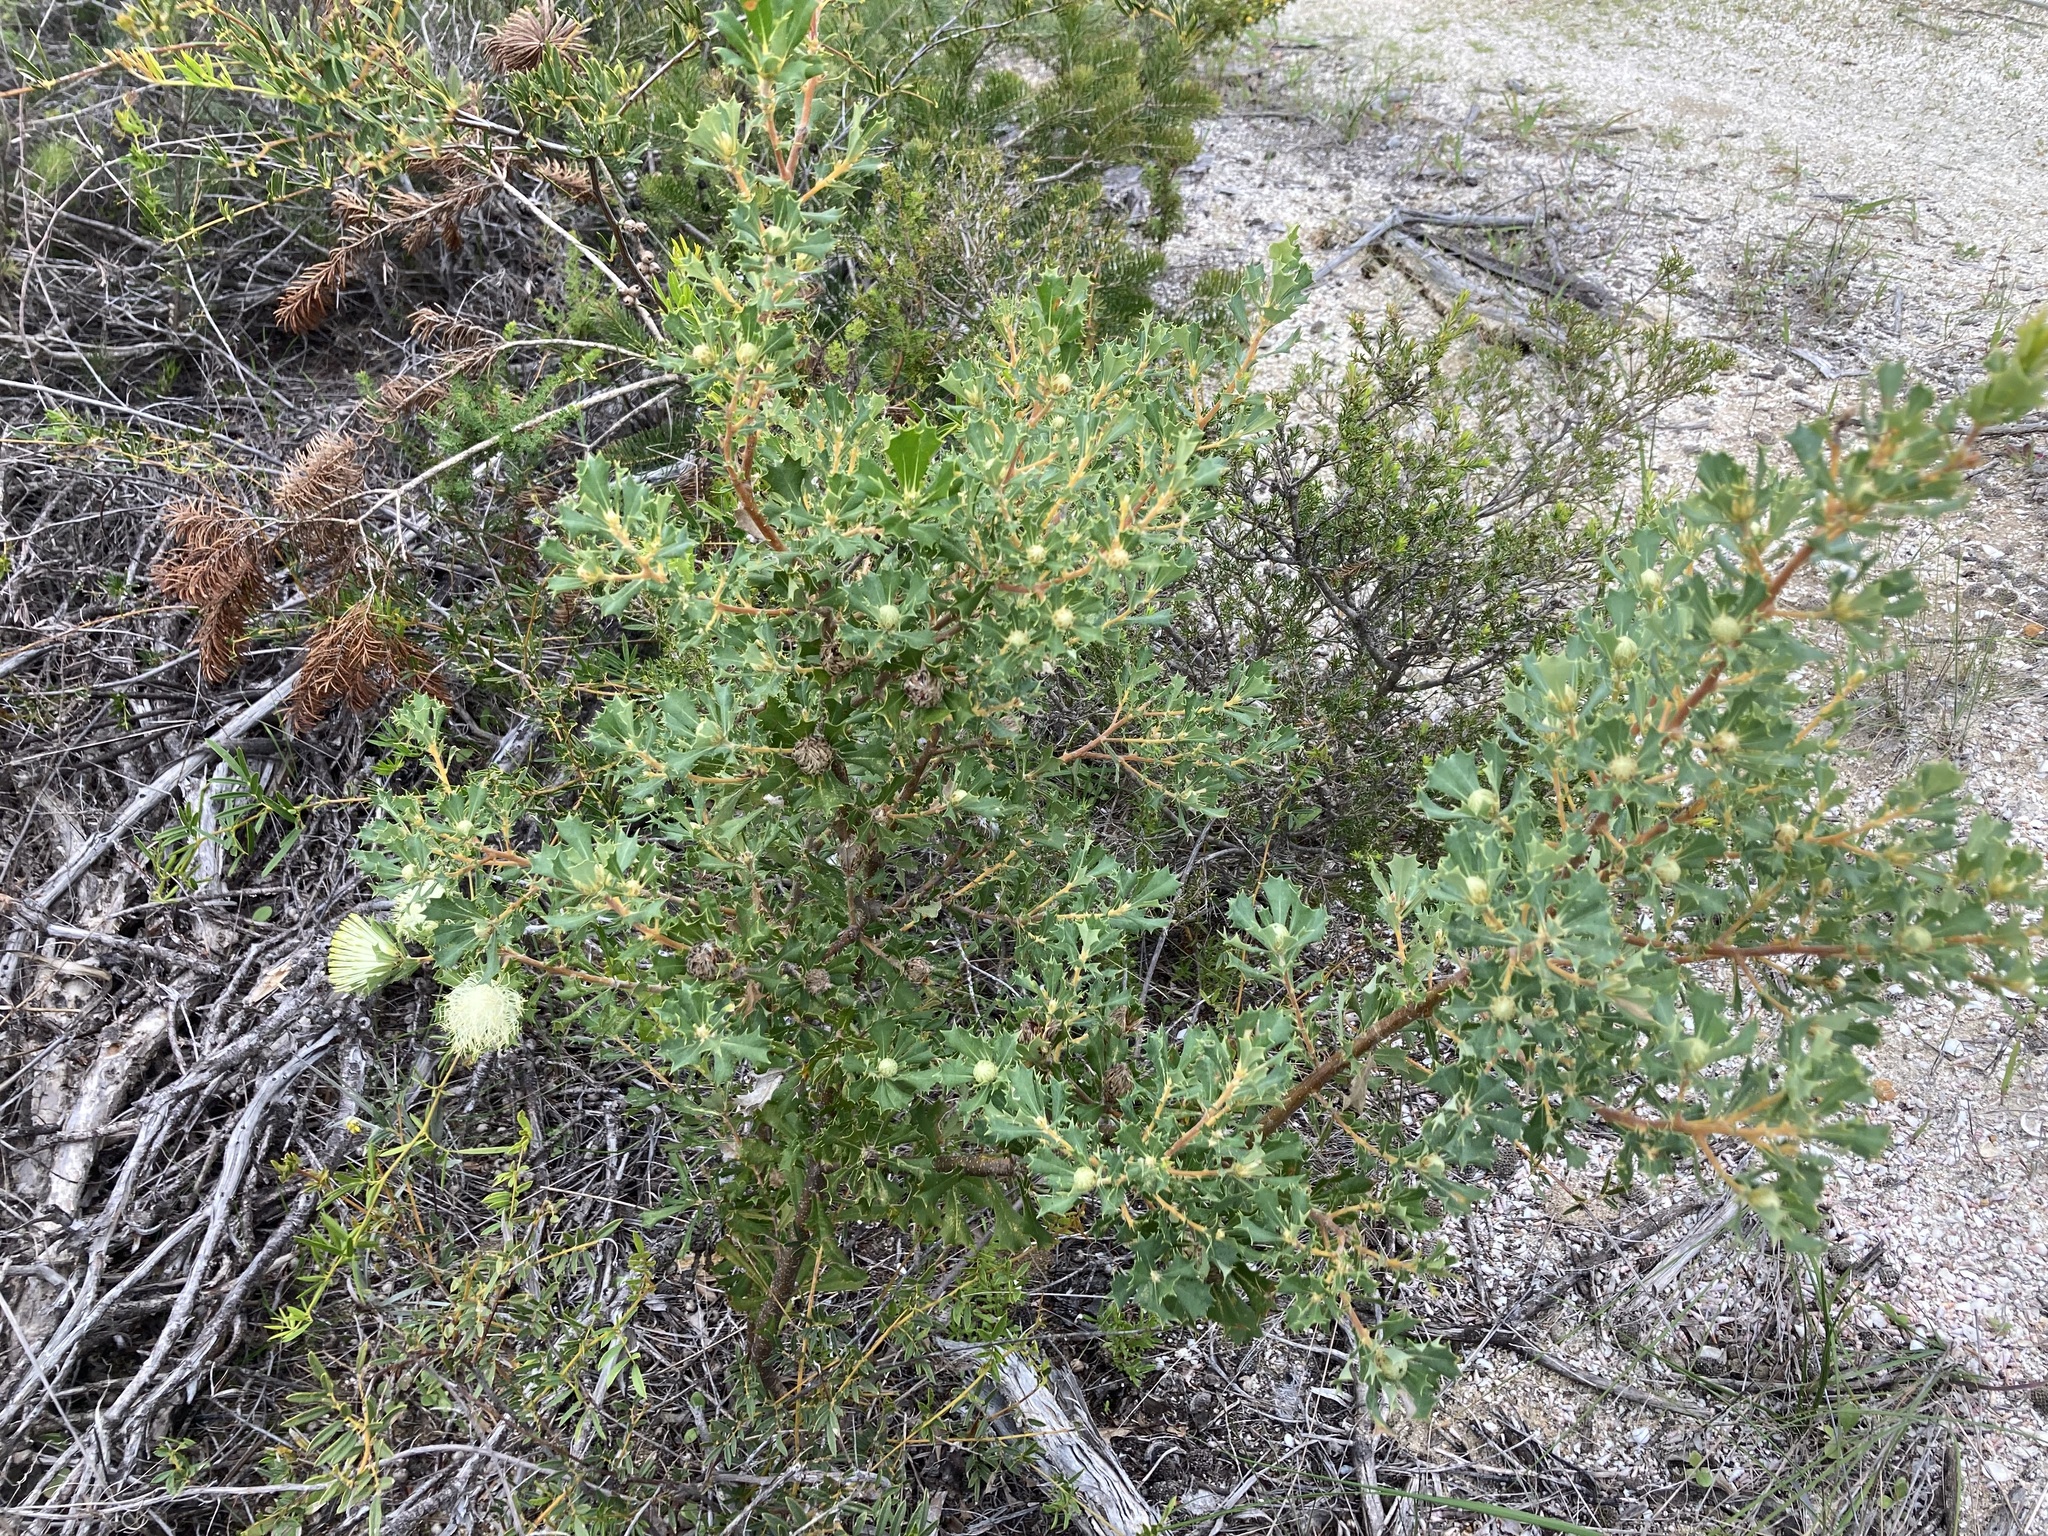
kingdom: Plantae
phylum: Tracheophyta
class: Magnoliopsida
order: Proteales
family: Proteaceae
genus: Banksia
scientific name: Banksia sessilis
